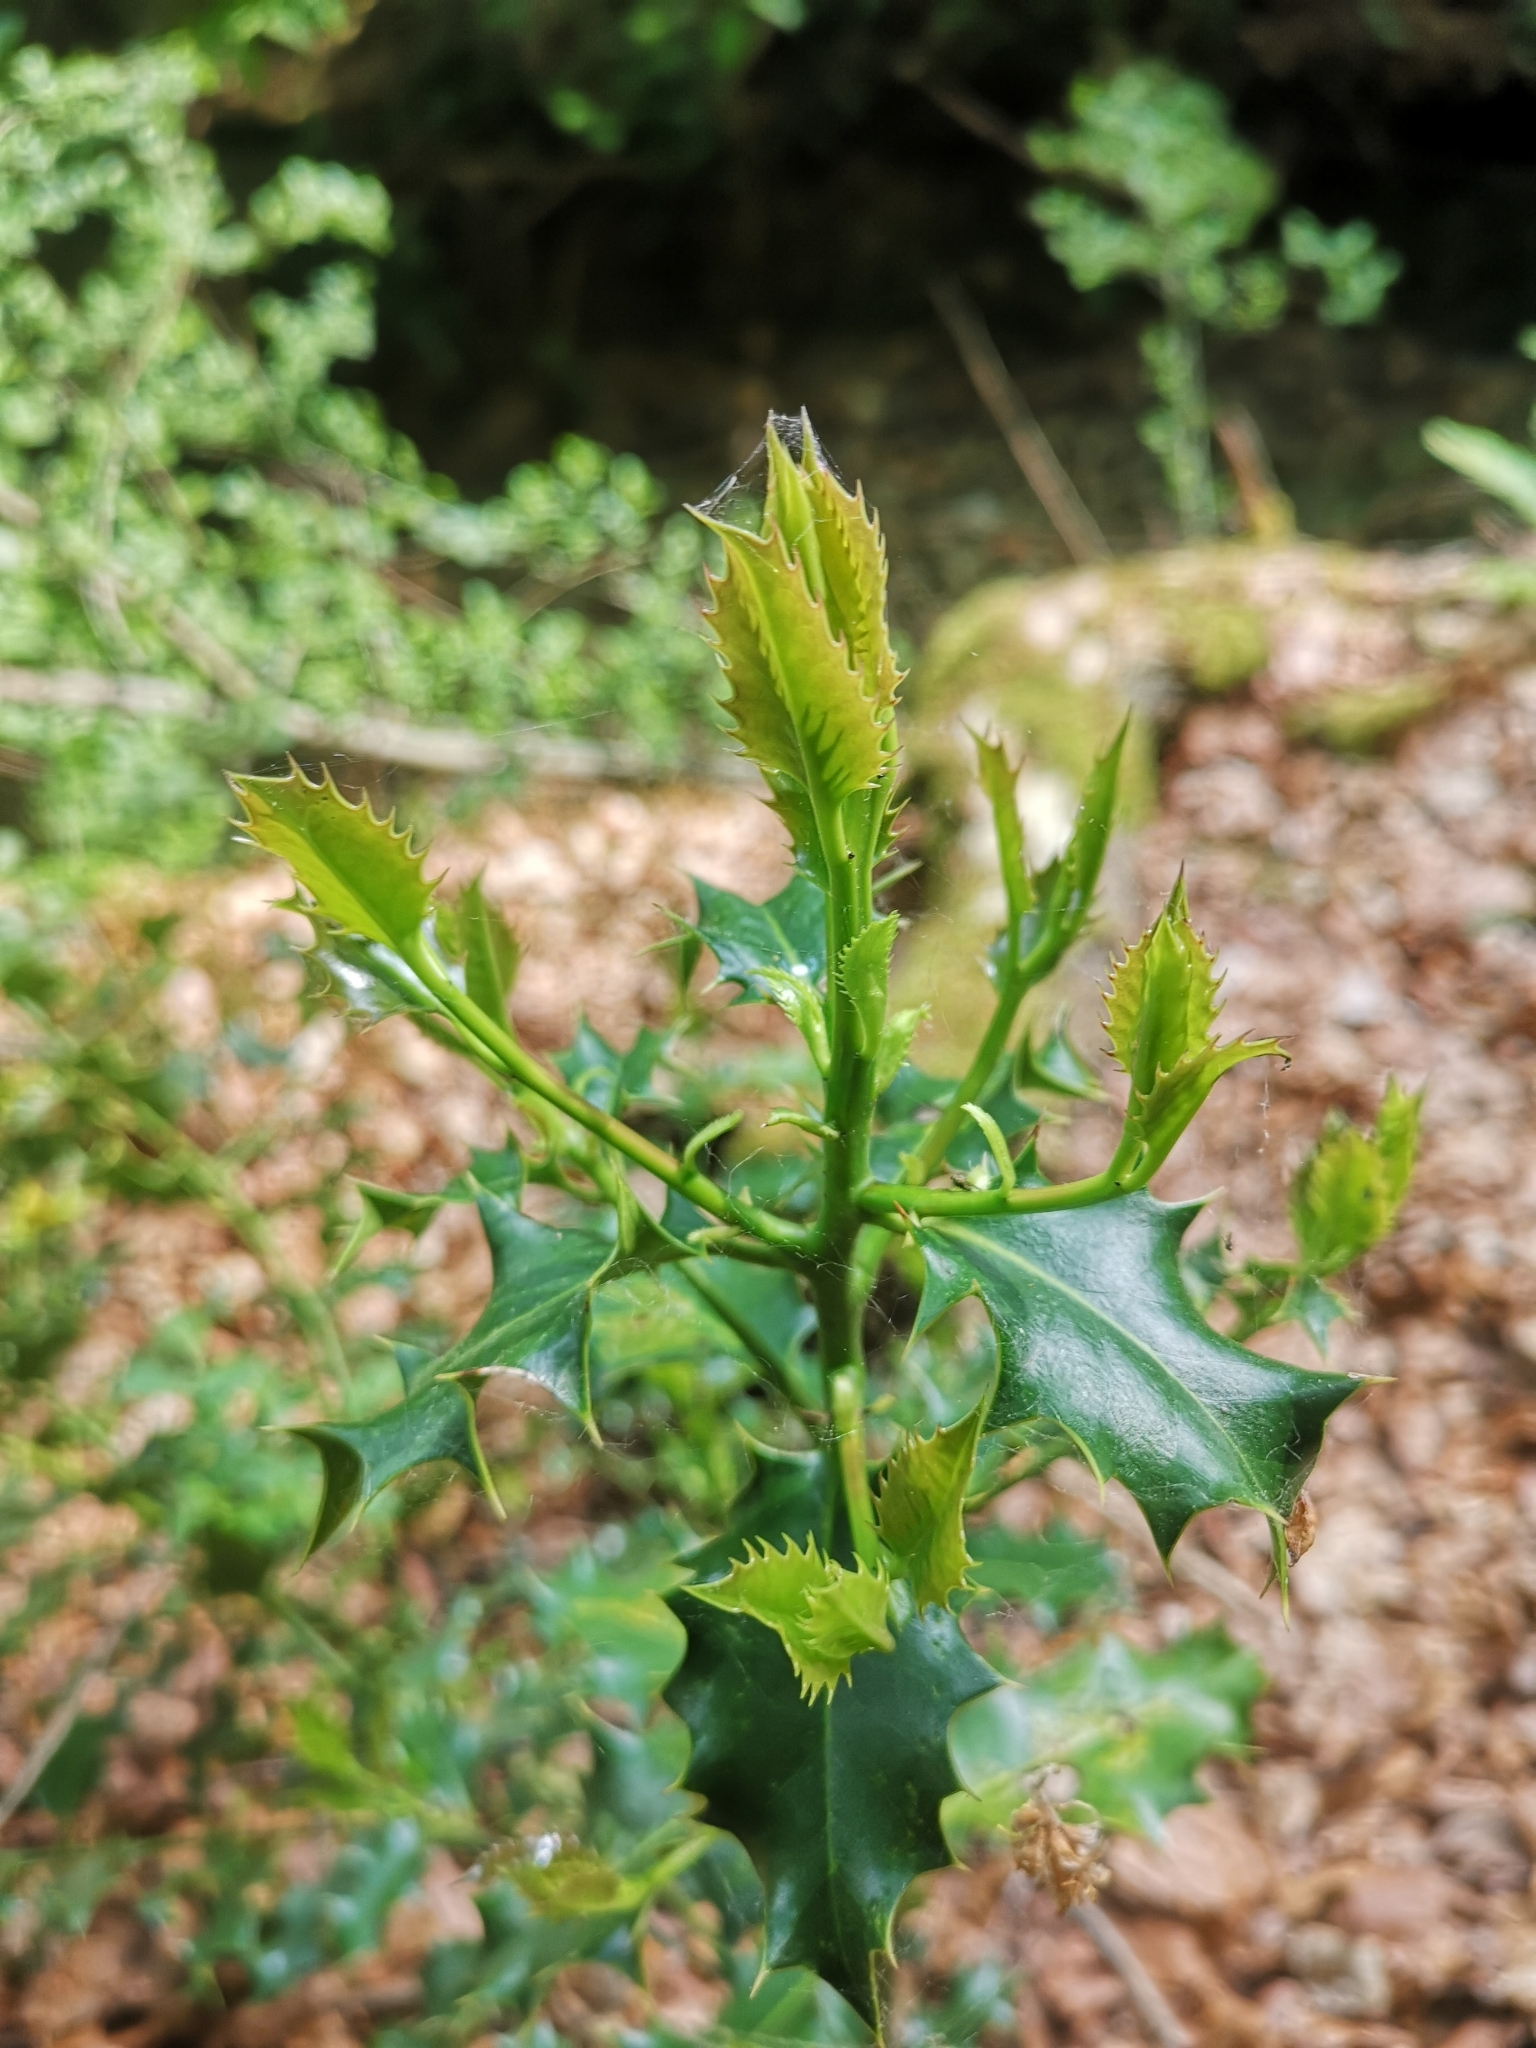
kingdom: Plantae
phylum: Tracheophyta
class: Magnoliopsida
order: Aquifoliales
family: Aquifoliaceae
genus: Ilex
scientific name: Ilex aquifolium
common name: English holly
